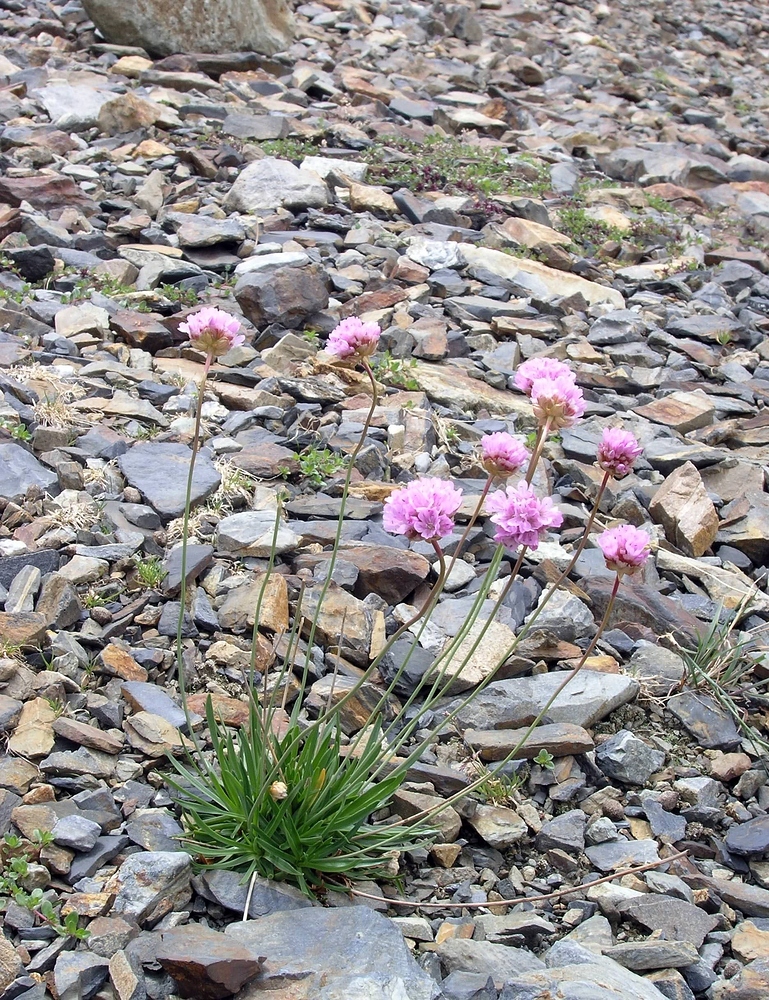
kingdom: Plantae
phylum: Tracheophyta
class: Magnoliopsida
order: Caryophyllales
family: Plumbaginaceae
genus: Armeria
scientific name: Armeria alpina
